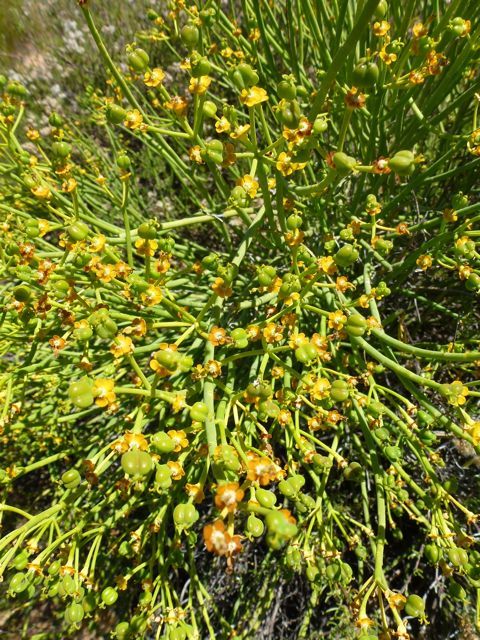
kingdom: Plantae
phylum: Tracheophyta
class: Magnoliopsida
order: Malpighiales
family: Euphorbiaceae
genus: Euphorbia
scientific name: Euphorbia mauritanica
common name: Jackal's-food
